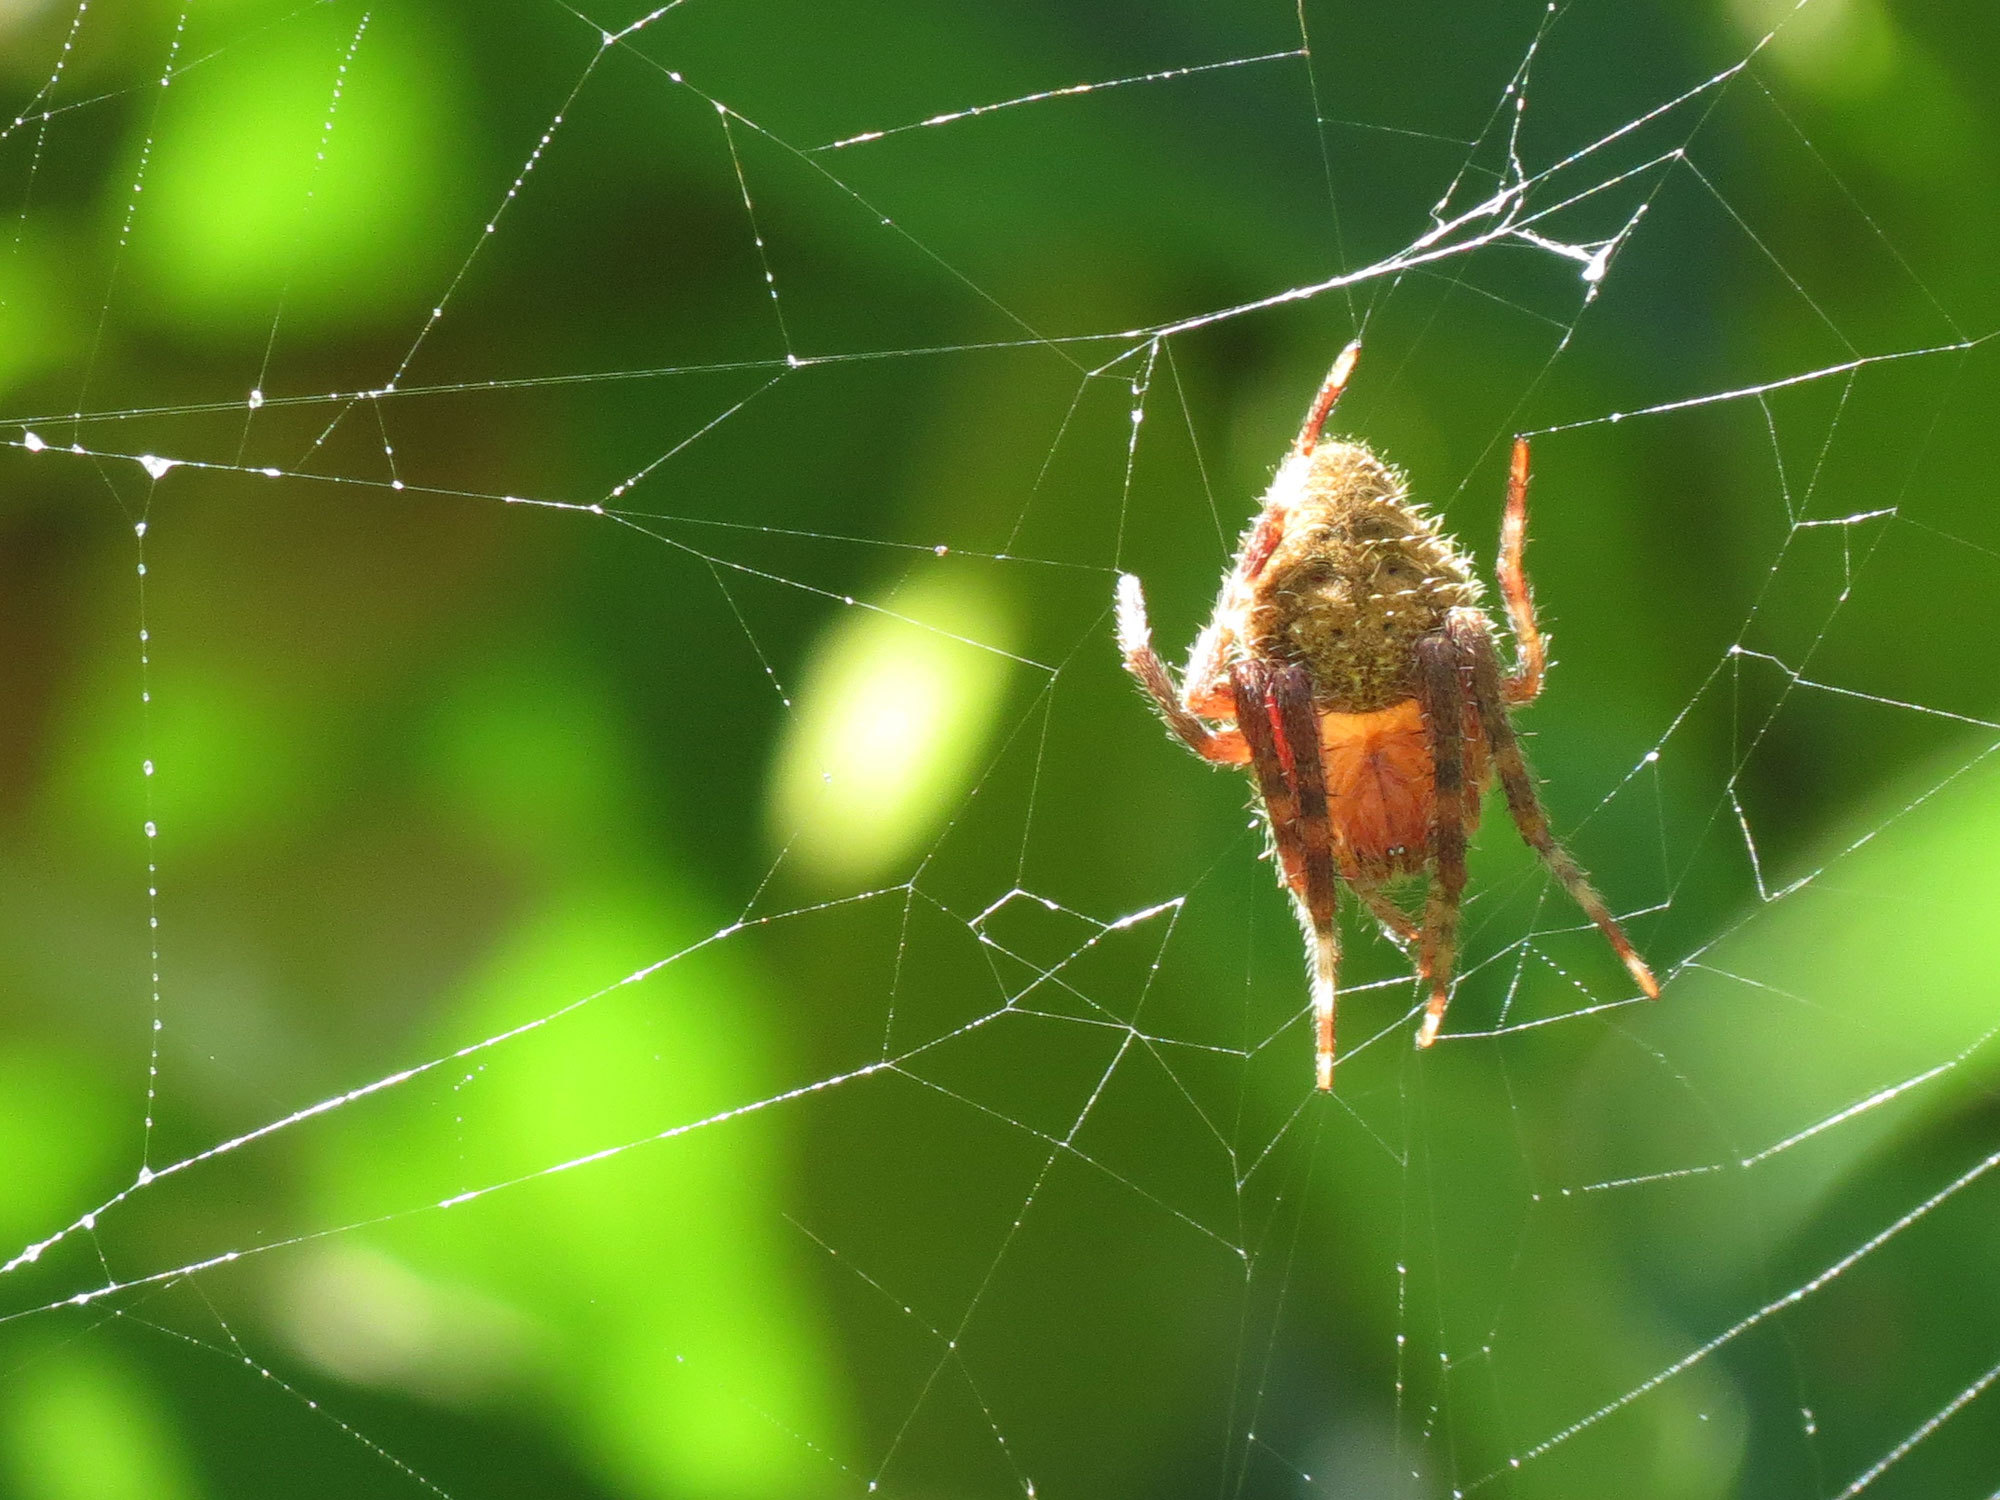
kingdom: Animalia
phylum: Arthropoda
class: Arachnida
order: Araneae
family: Araneidae
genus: Eriophora
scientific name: Eriophora ravilla
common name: Orb weavers
